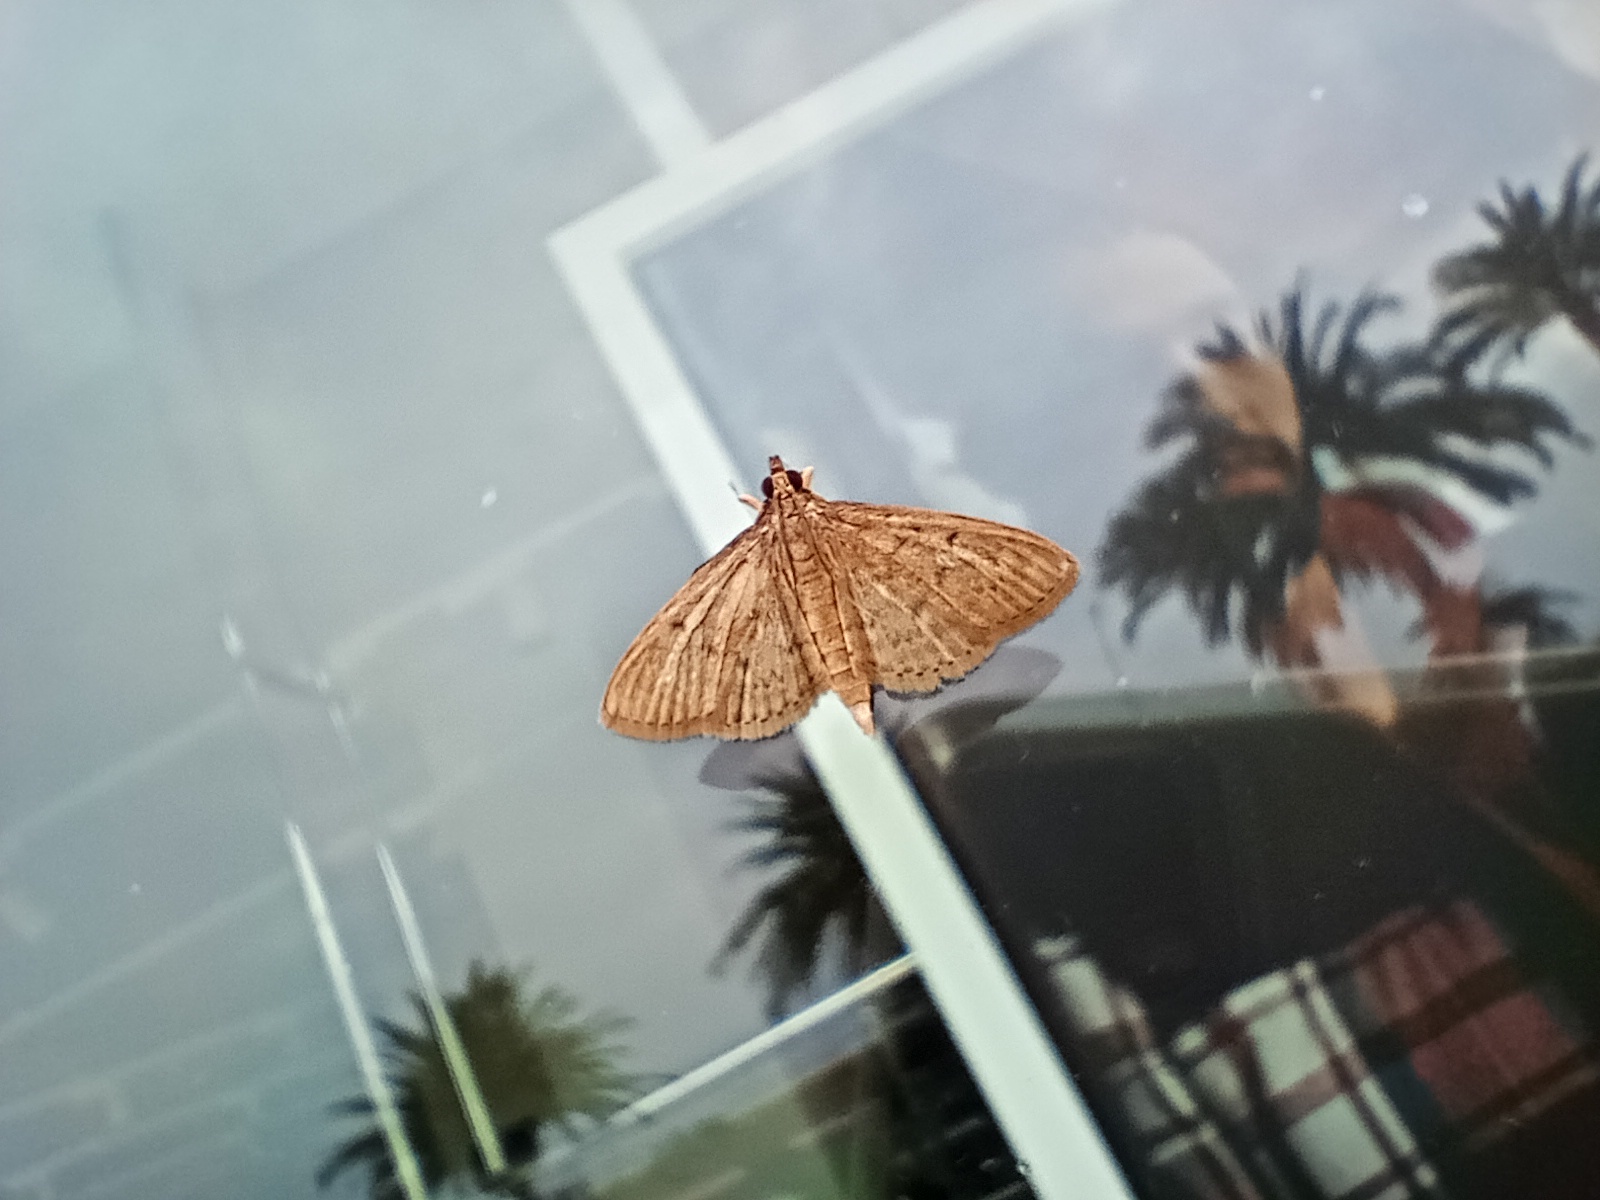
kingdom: Animalia
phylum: Arthropoda
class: Insecta
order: Lepidoptera
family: Crambidae
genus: Herpetogramma
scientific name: Herpetogramma licarsisalis
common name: Grass webworm
